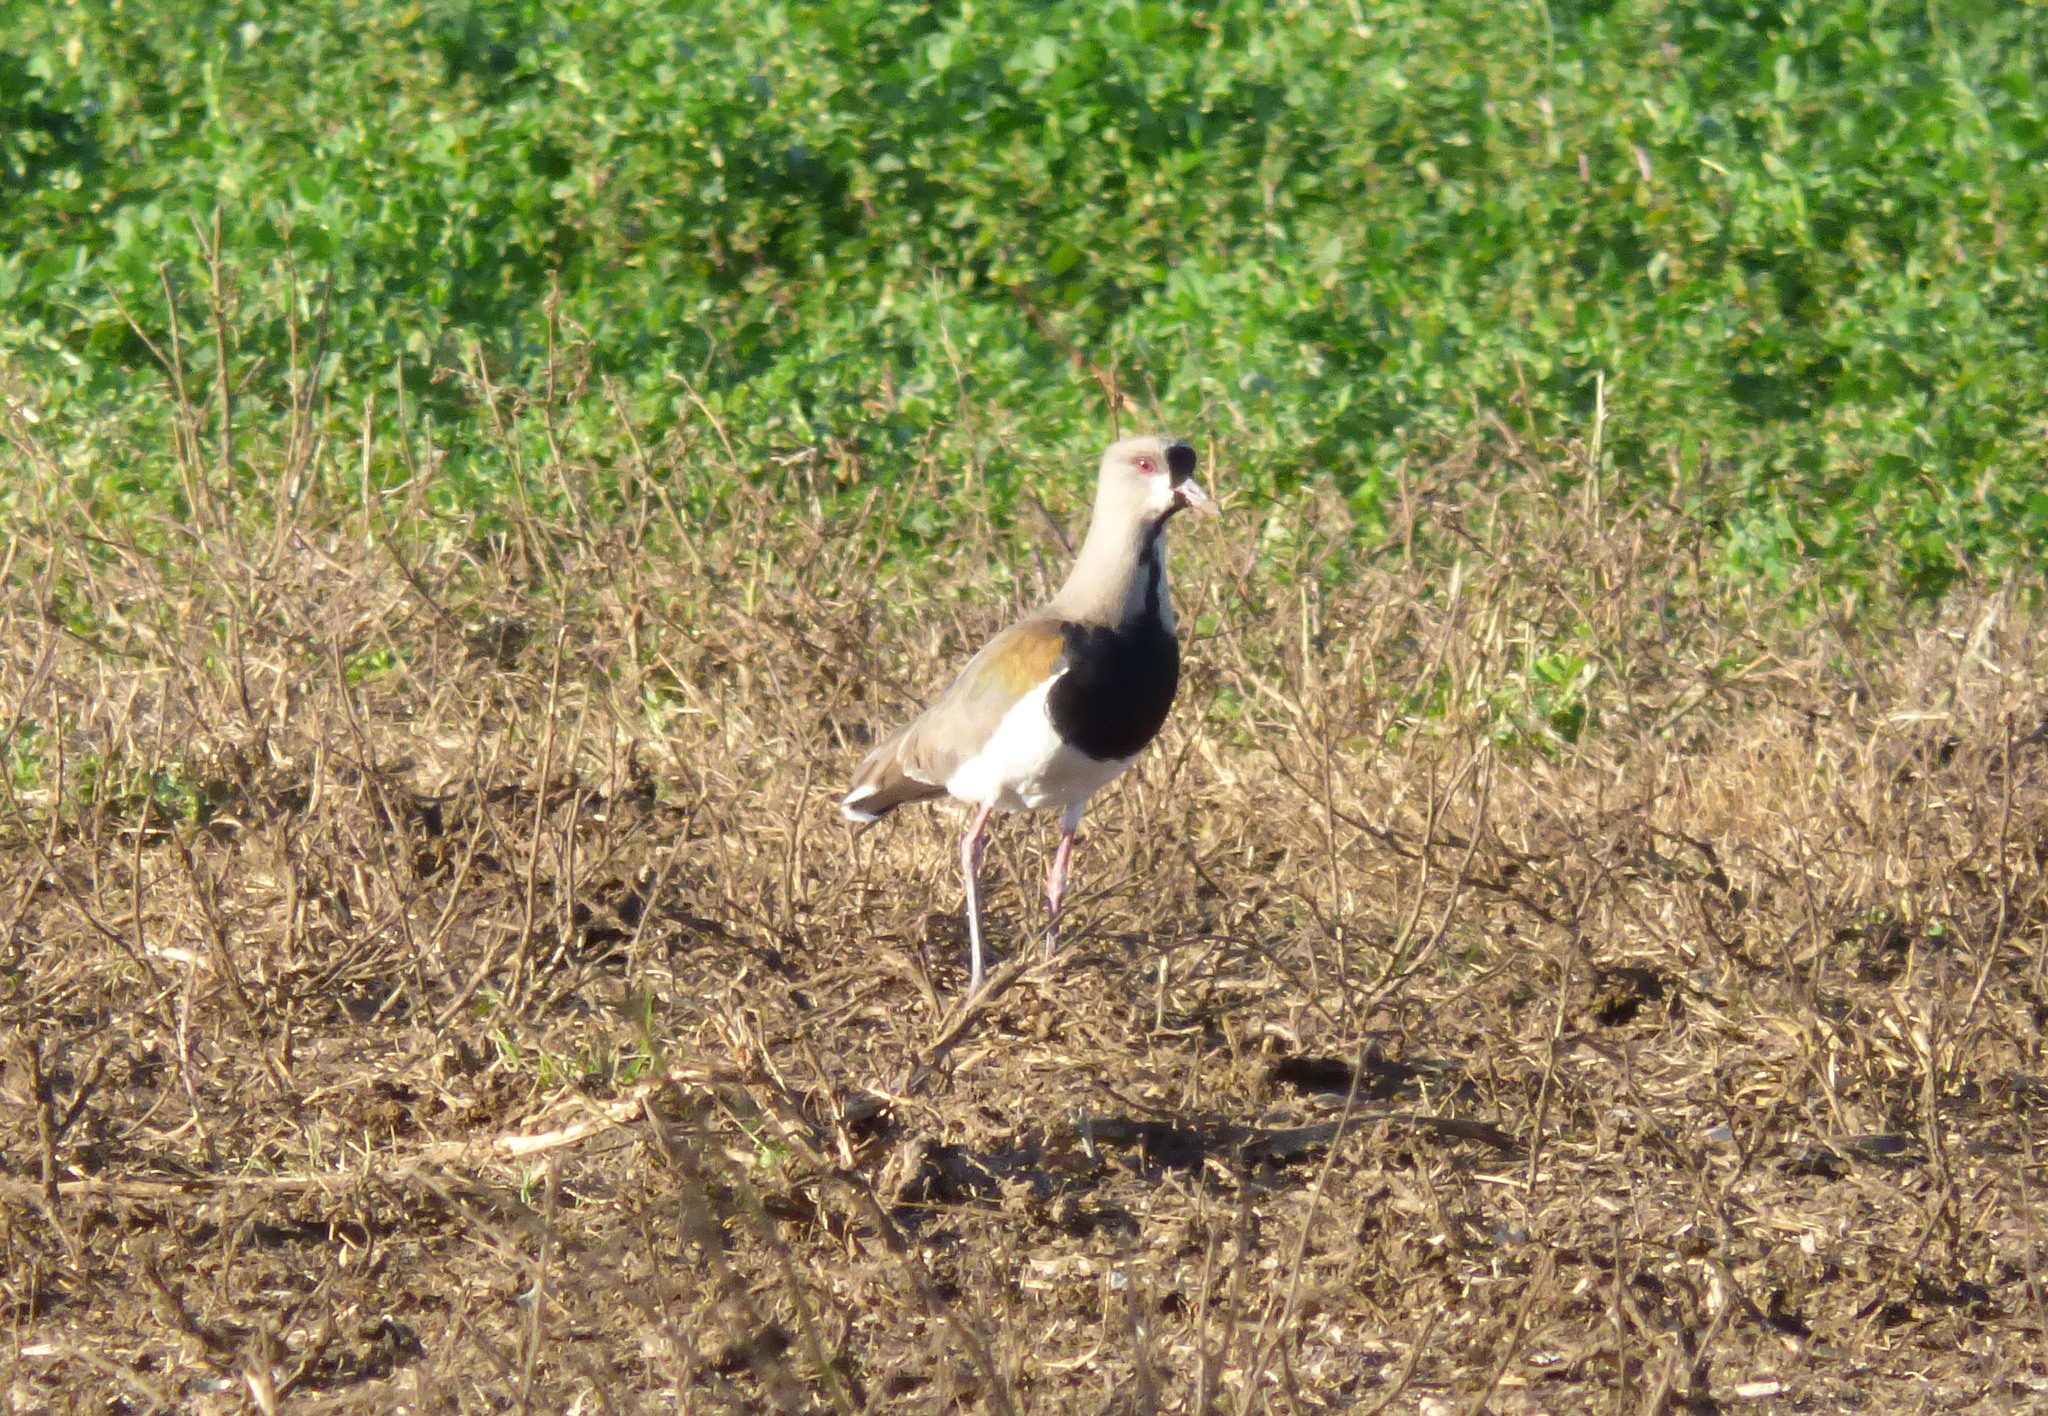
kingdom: Animalia
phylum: Chordata
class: Aves
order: Charadriiformes
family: Charadriidae
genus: Vanellus
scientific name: Vanellus chilensis
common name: Southern lapwing
